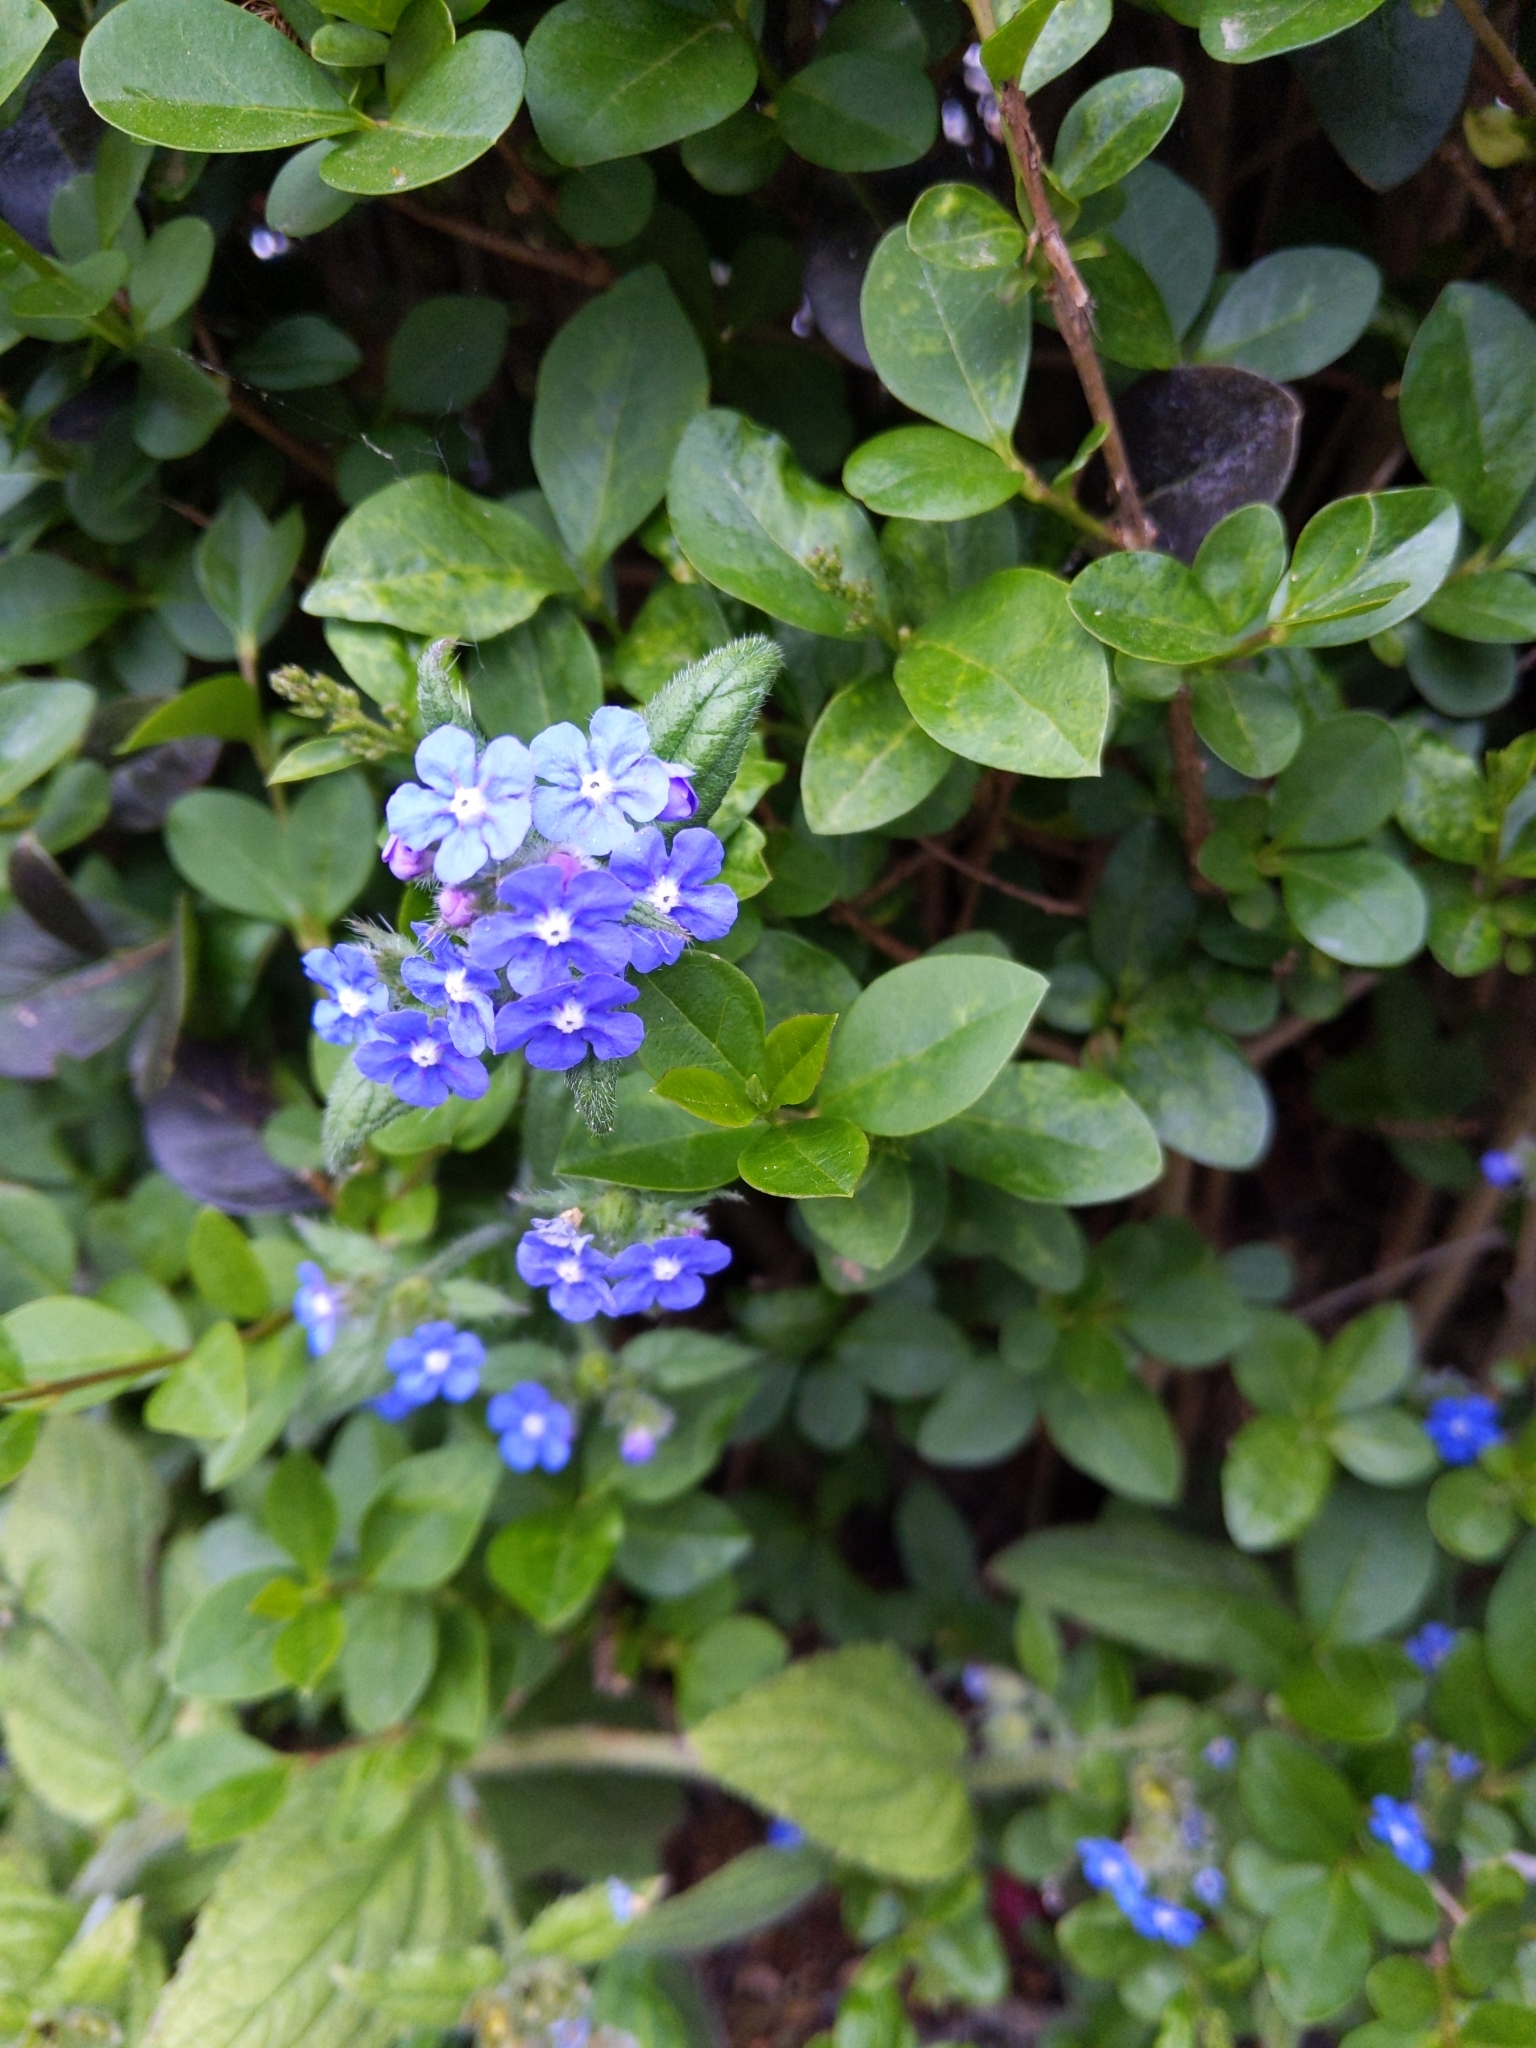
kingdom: Plantae
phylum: Tracheophyta
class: Magnoliopsida
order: Boraginales
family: Boraginaceae
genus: Pentaglottis
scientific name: Pentaglottis sempervirens
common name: Green alkanet
